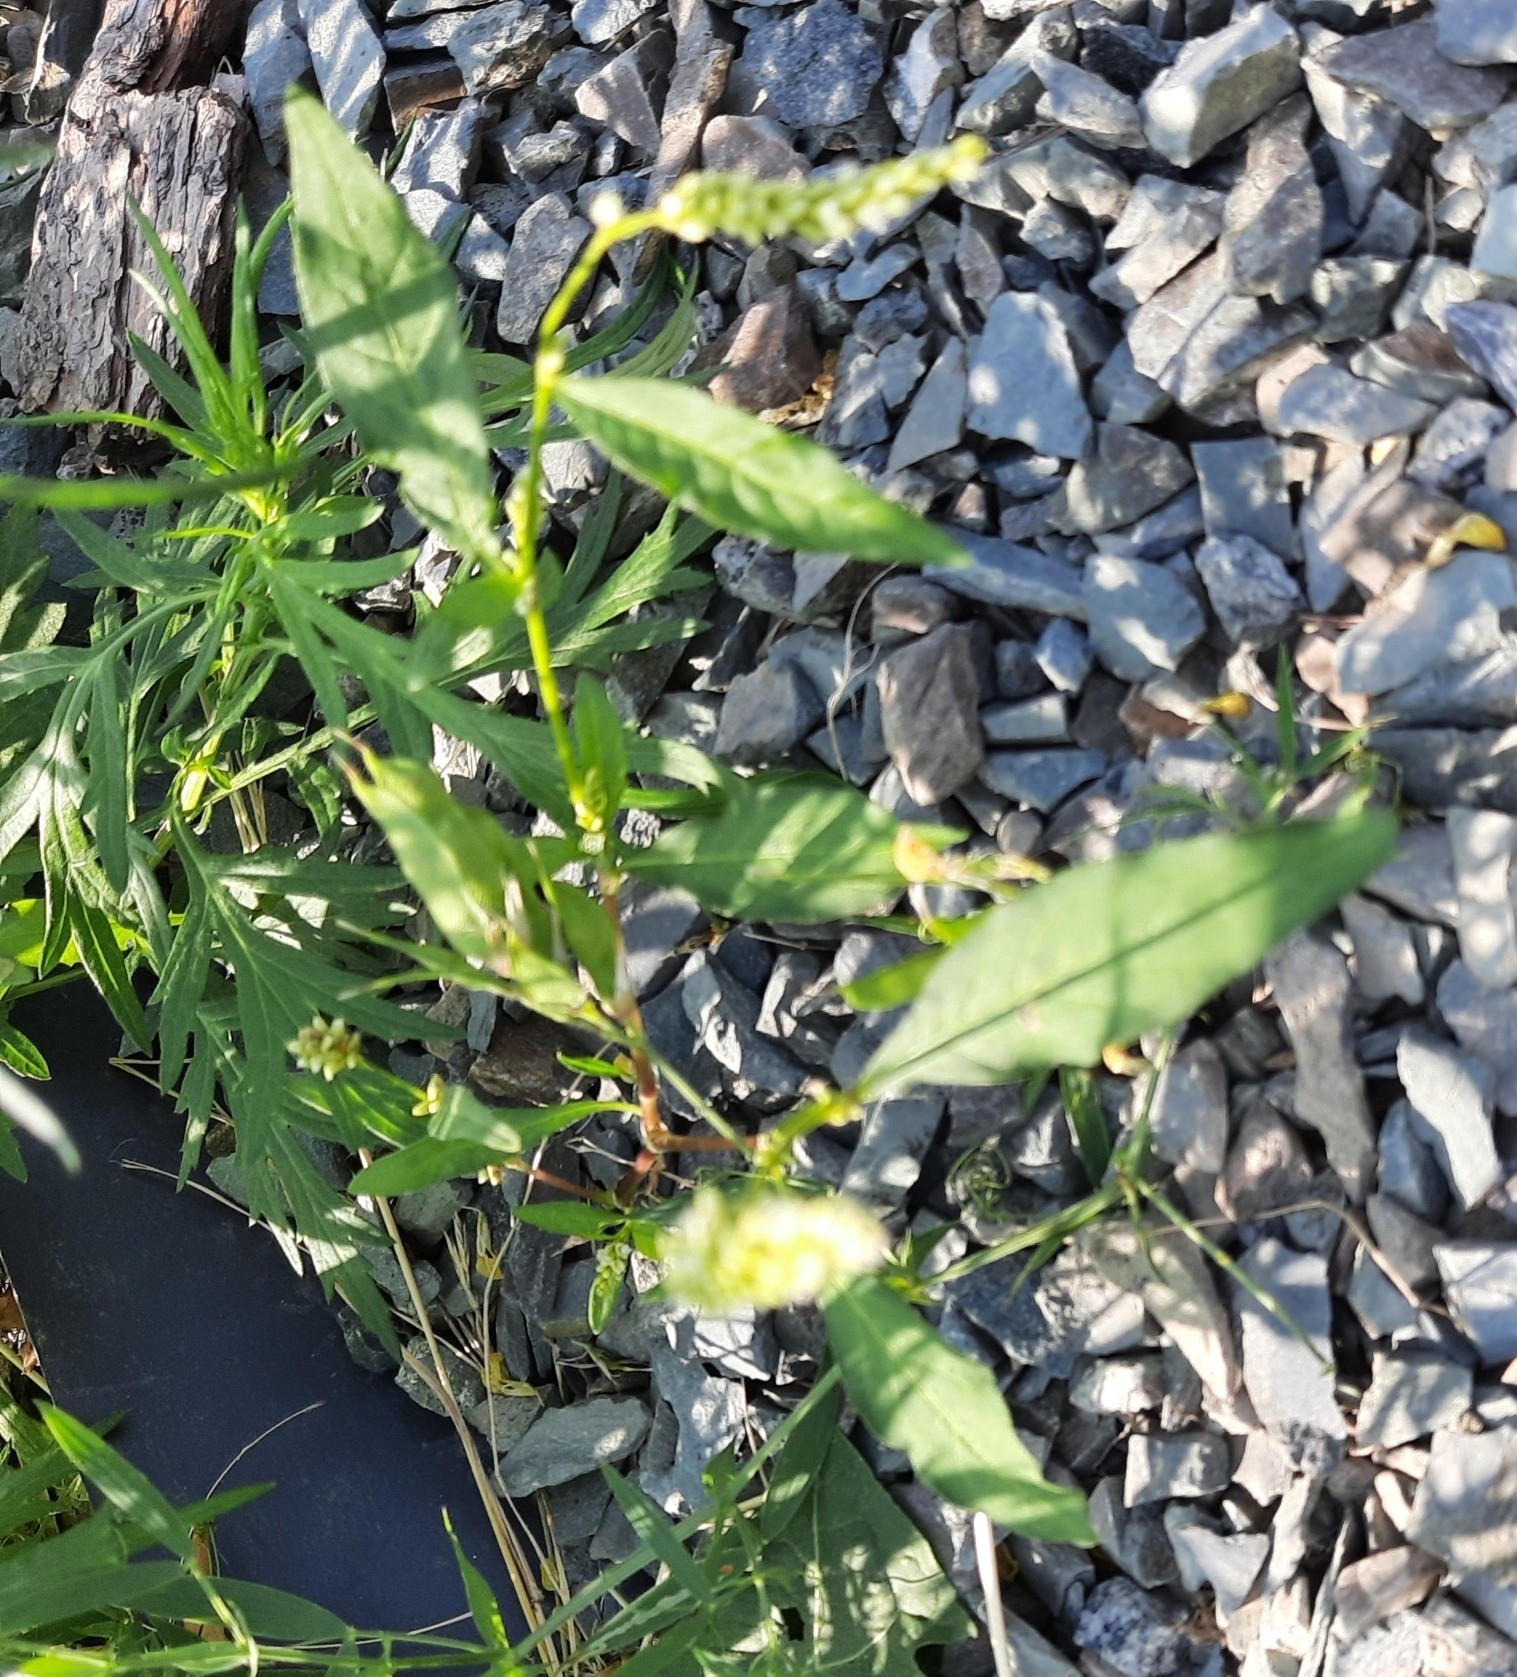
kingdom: Plantae
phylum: Tracheophyta
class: Magnoliopsida
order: Caryophyllales
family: Polygonaceae
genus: Persicaria
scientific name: Persicaria lapathifolia
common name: Curlytop knotweed
